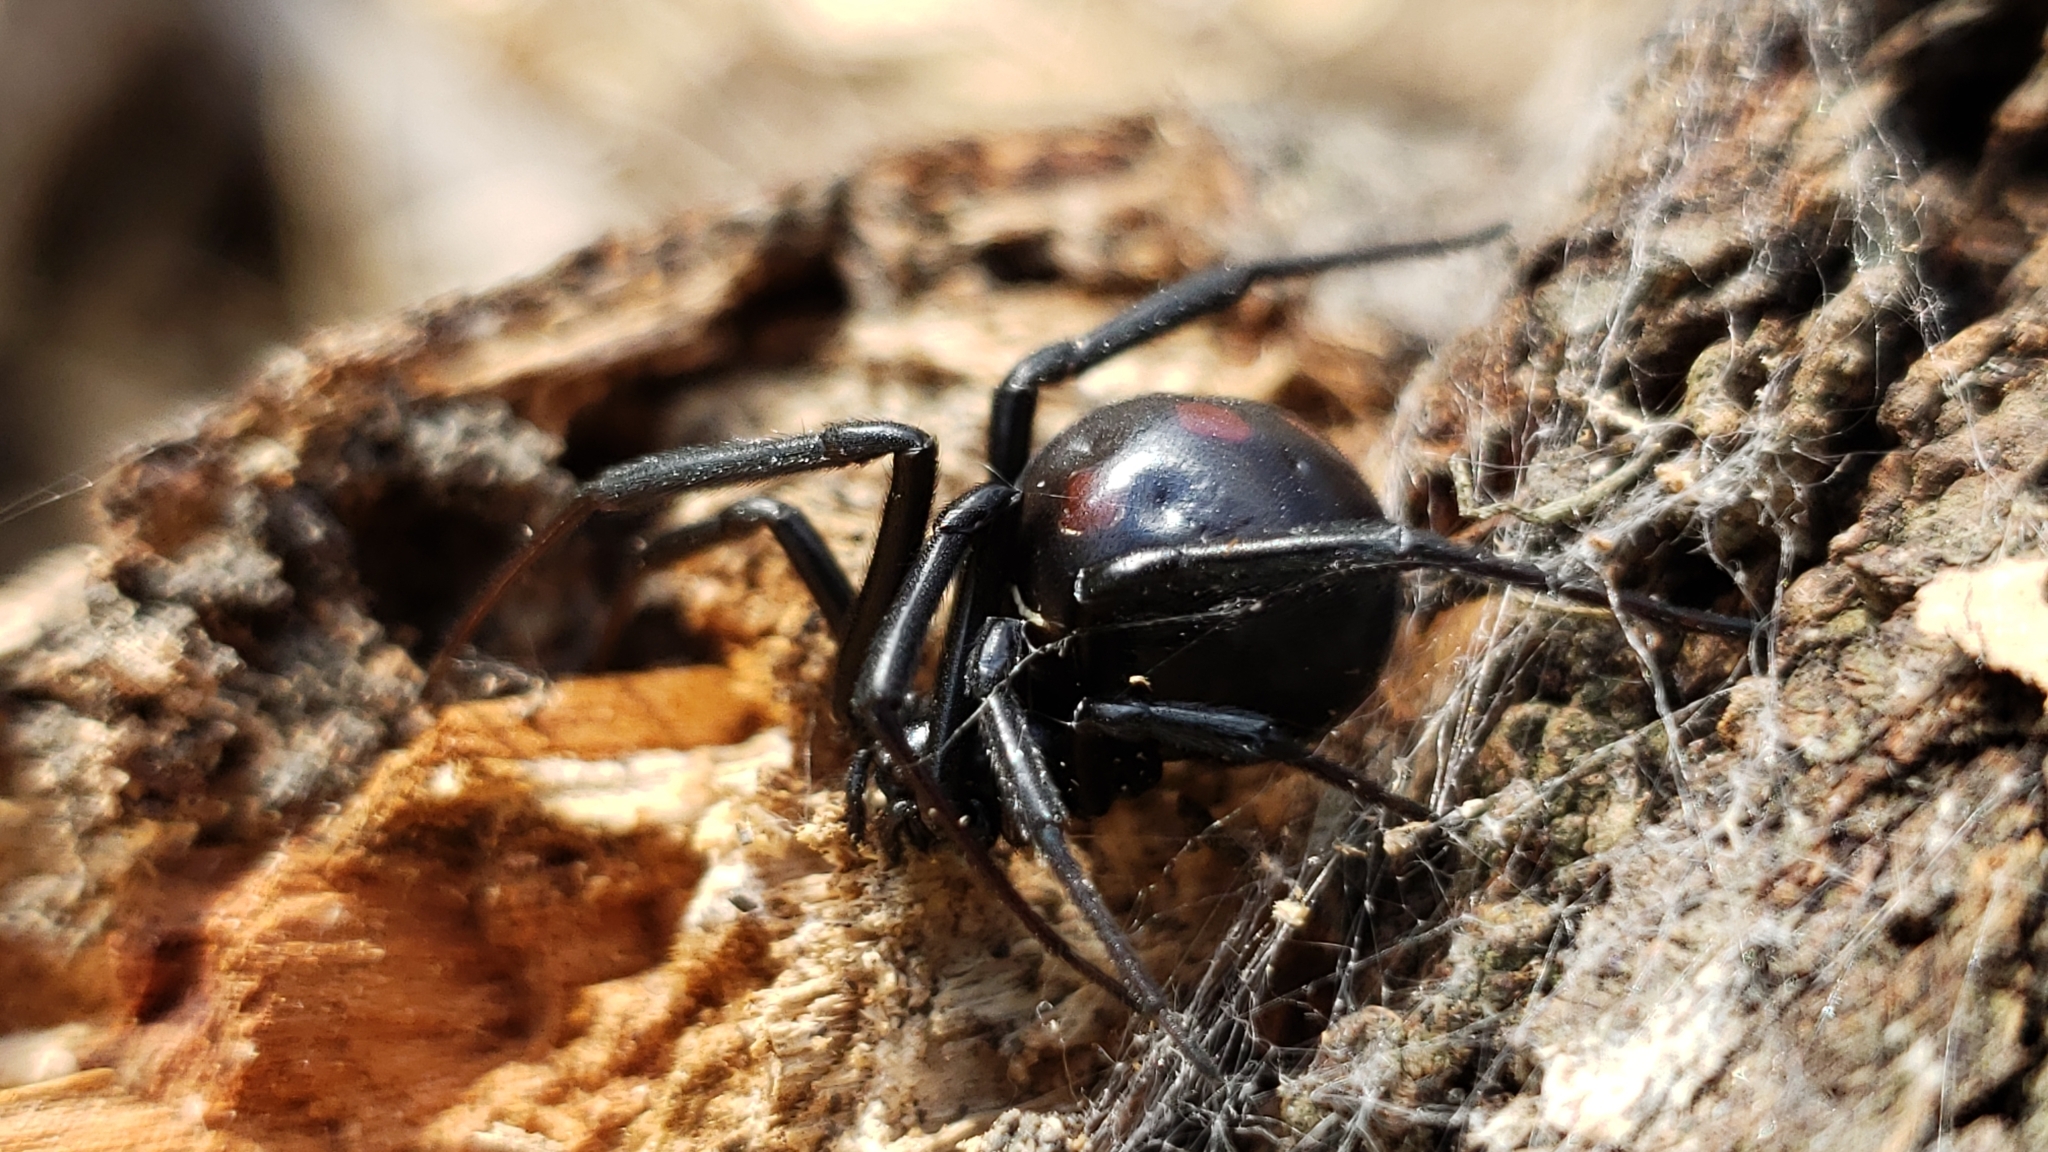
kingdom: Animalia
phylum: Arthropoda
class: Arachnida
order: Araneae
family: Theridiidae
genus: Latrodectus
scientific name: Latrodectus mactans
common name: Cobweb spiders
